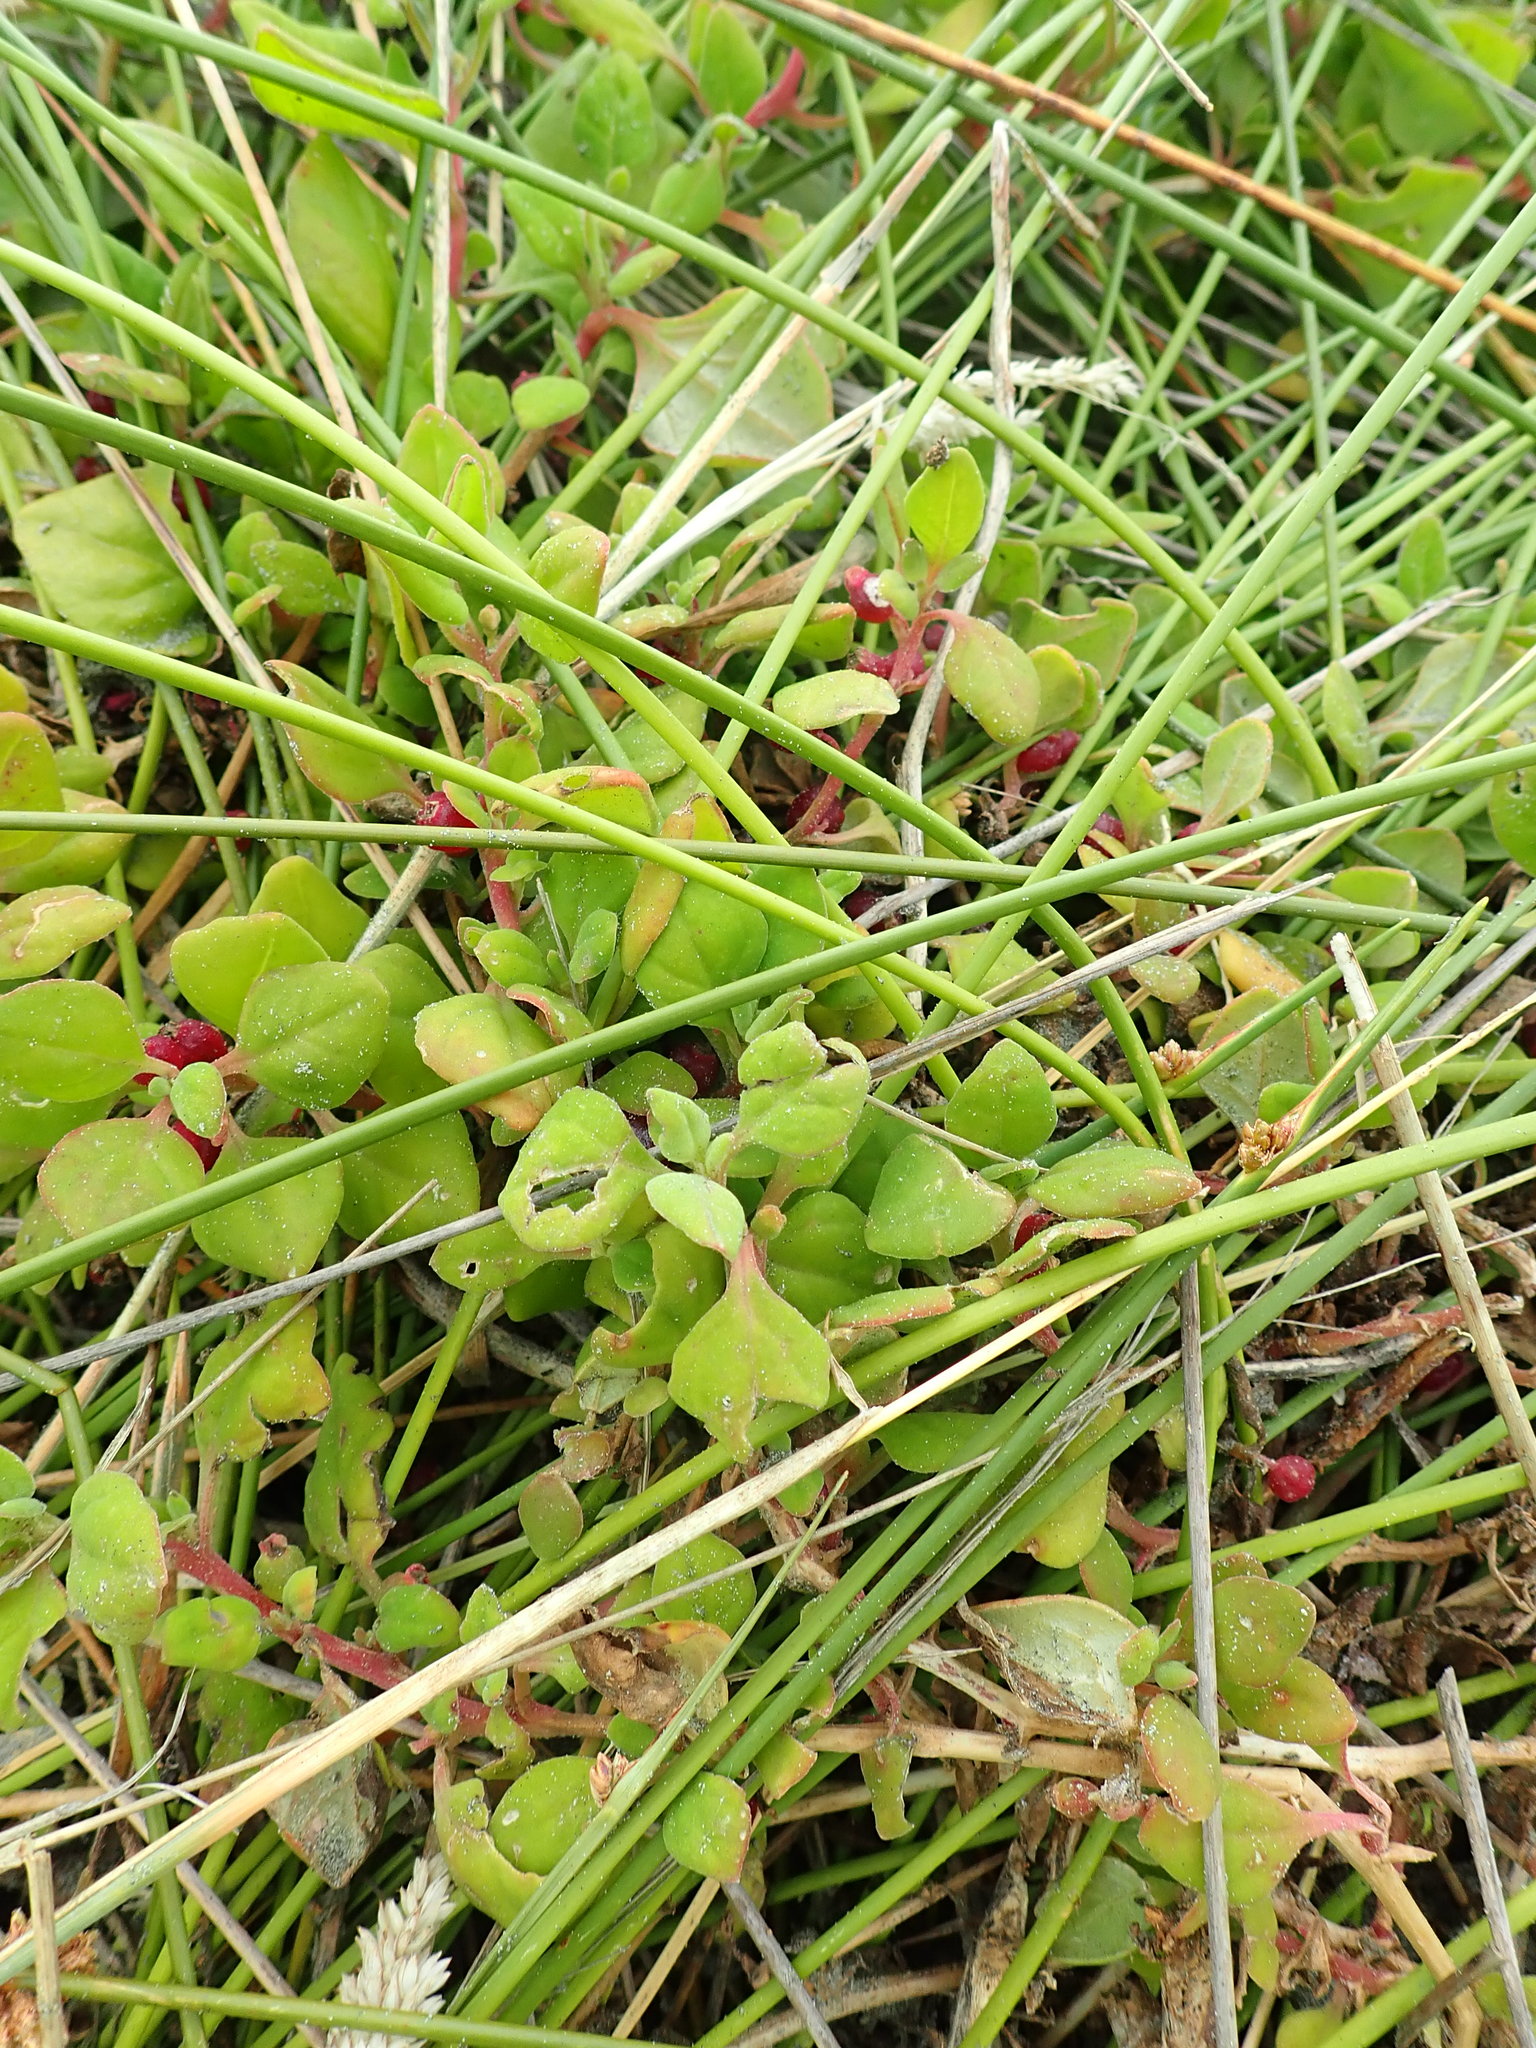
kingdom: Plantae
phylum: Tracheophyta
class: Magnoliopsida
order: Caryophyllales
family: Aizoaceae
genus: Tetragonia
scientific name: Tetragonia implexicoma
